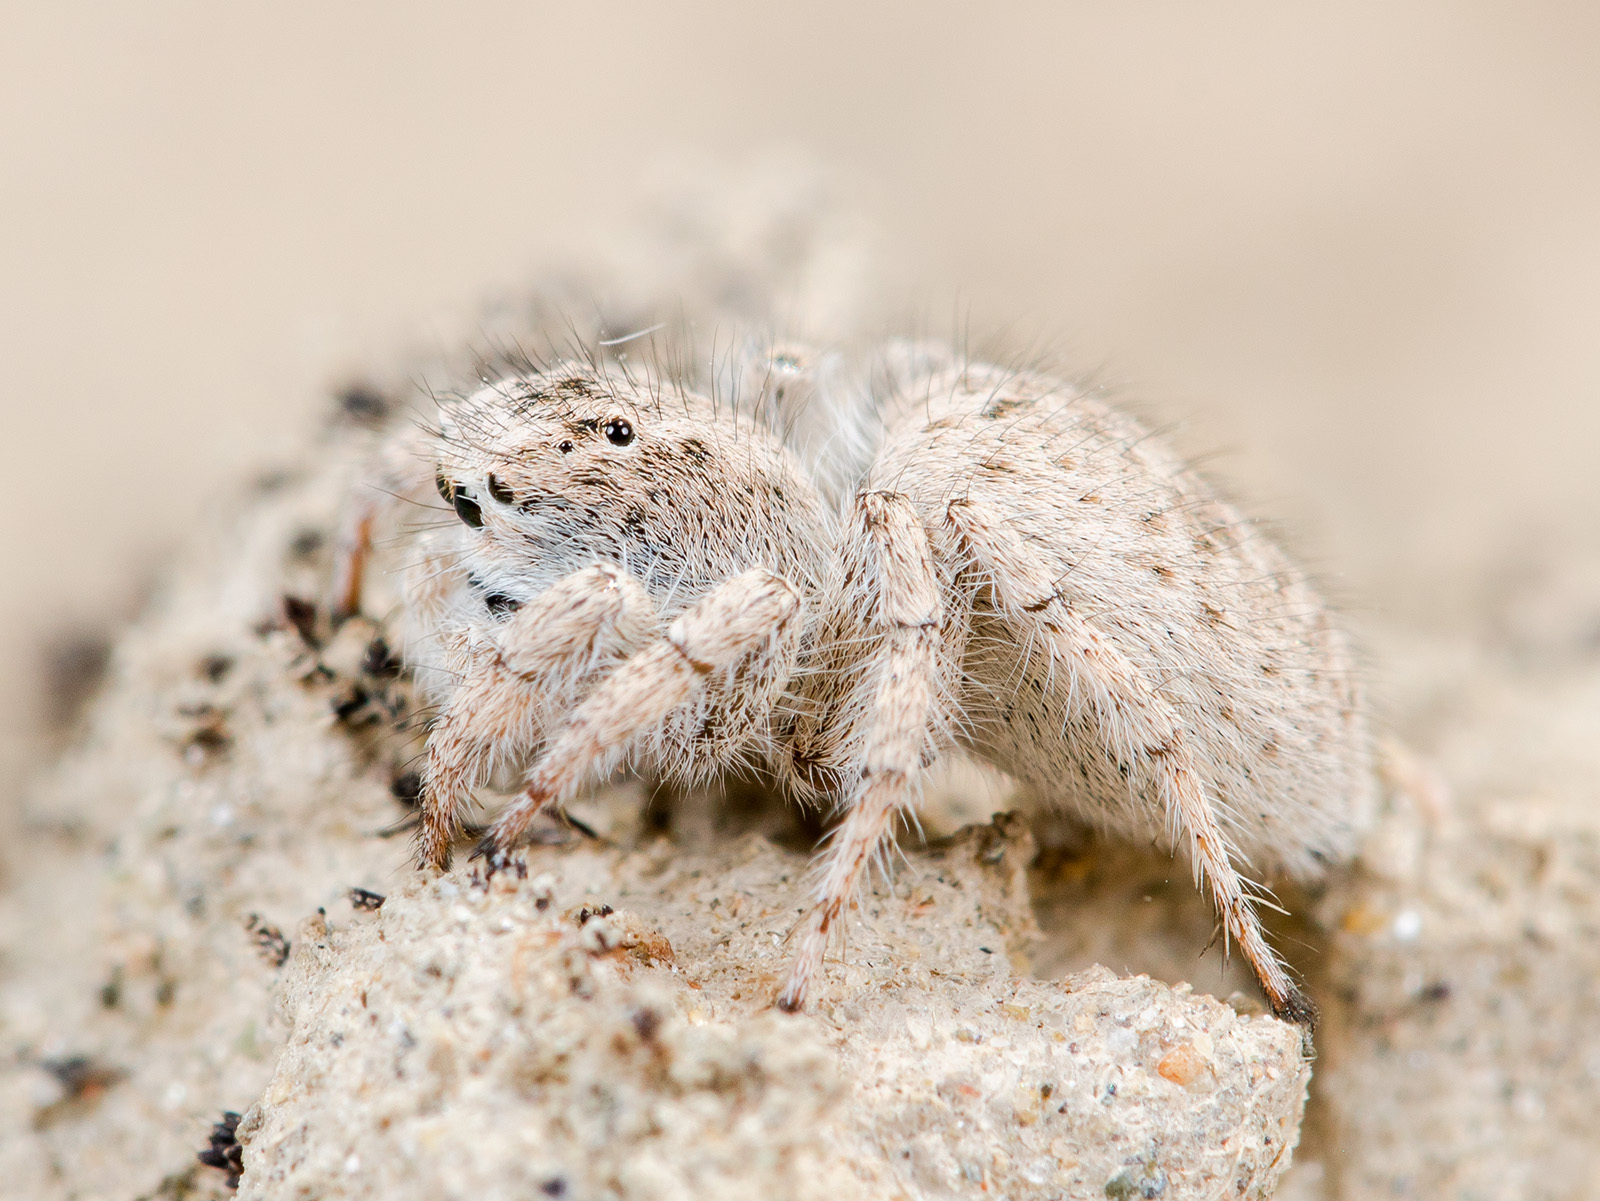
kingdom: Animalia
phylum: Arthropoda
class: Arachnida
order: Araneae
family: Salticidae
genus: Aelurillus
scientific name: Aelurillus concolor
